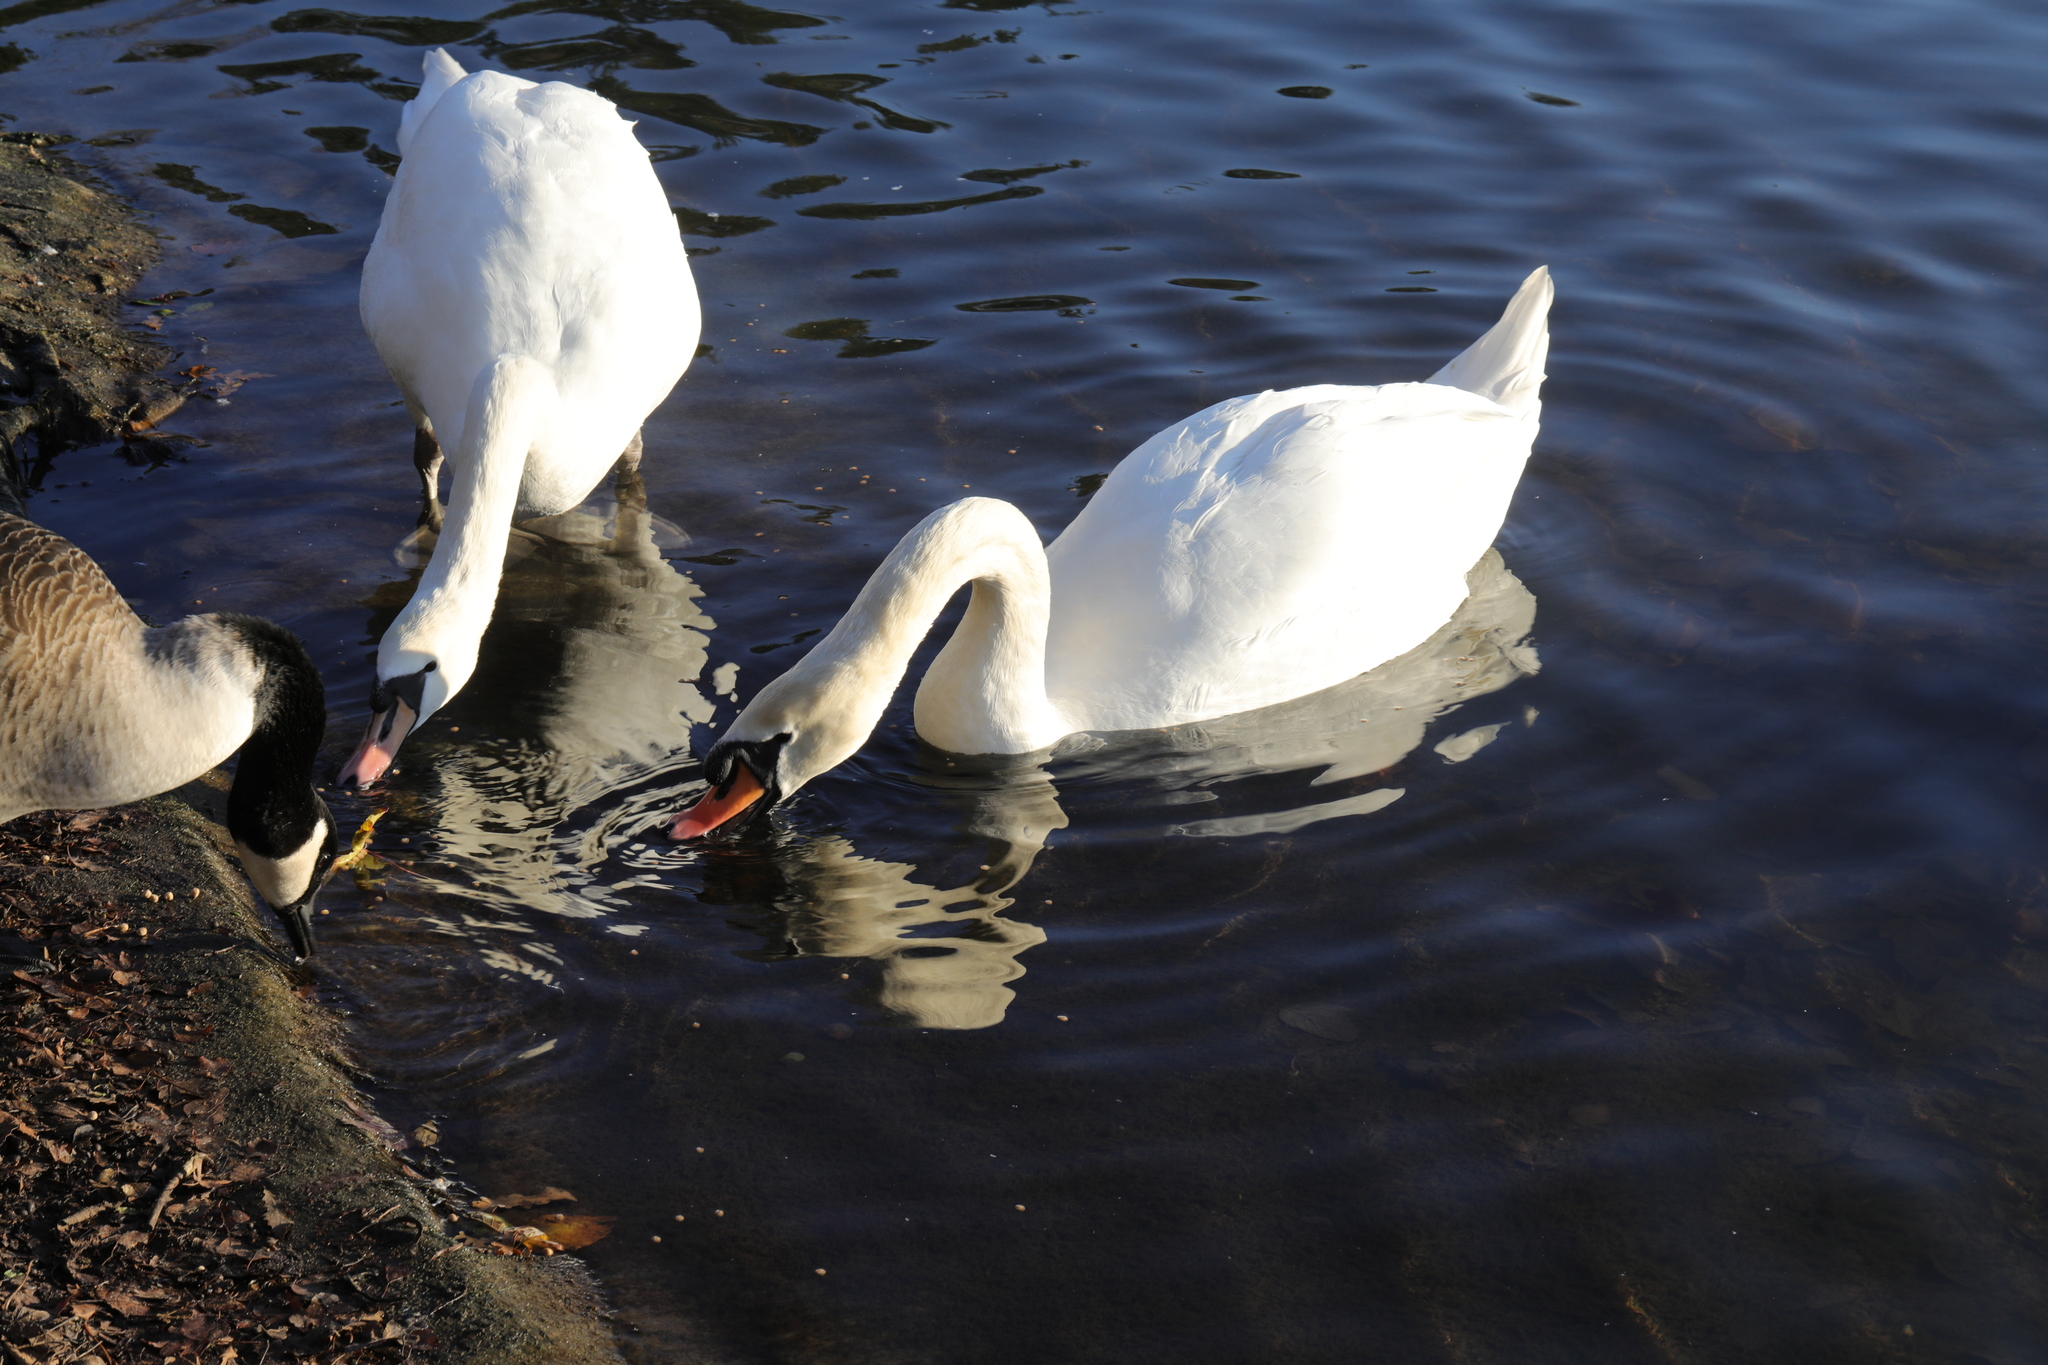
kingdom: Animalia
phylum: Chordata
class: Aves
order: Anseriformes
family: Anatidae
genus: Cygnus
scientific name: Cygnus olor
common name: Mute swan
